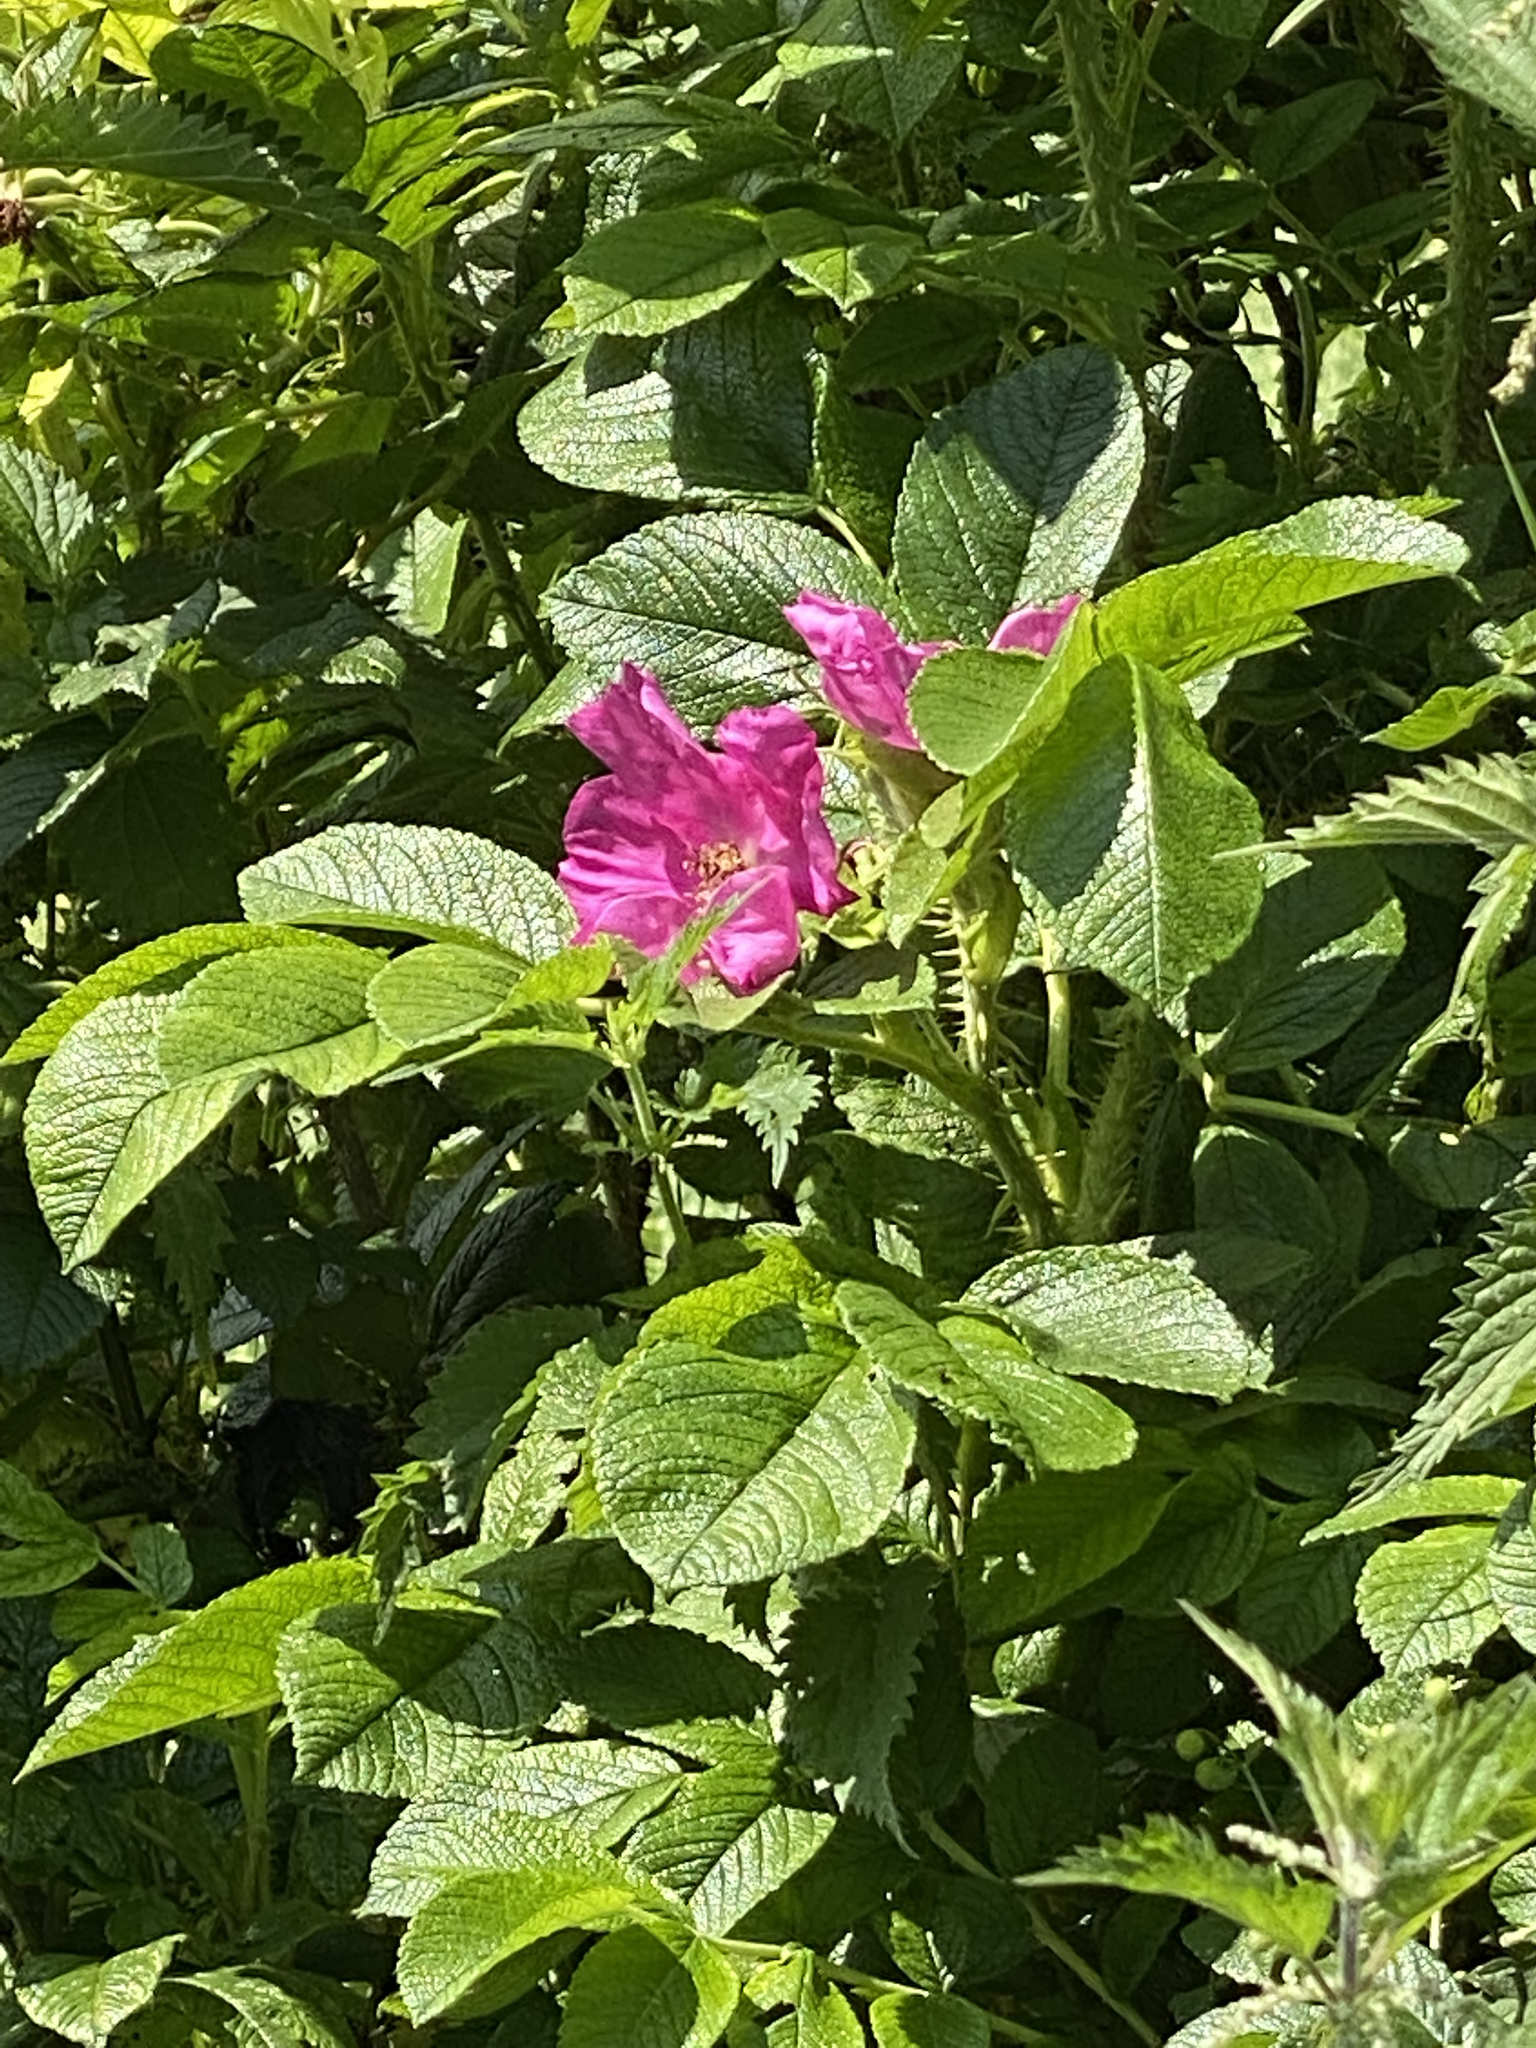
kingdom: Plantae
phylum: Tracheophyta
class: Magnoliopsida
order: Rosales
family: Rosaceae
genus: Rosa
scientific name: Rosa rugosa
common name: Japanese rose
